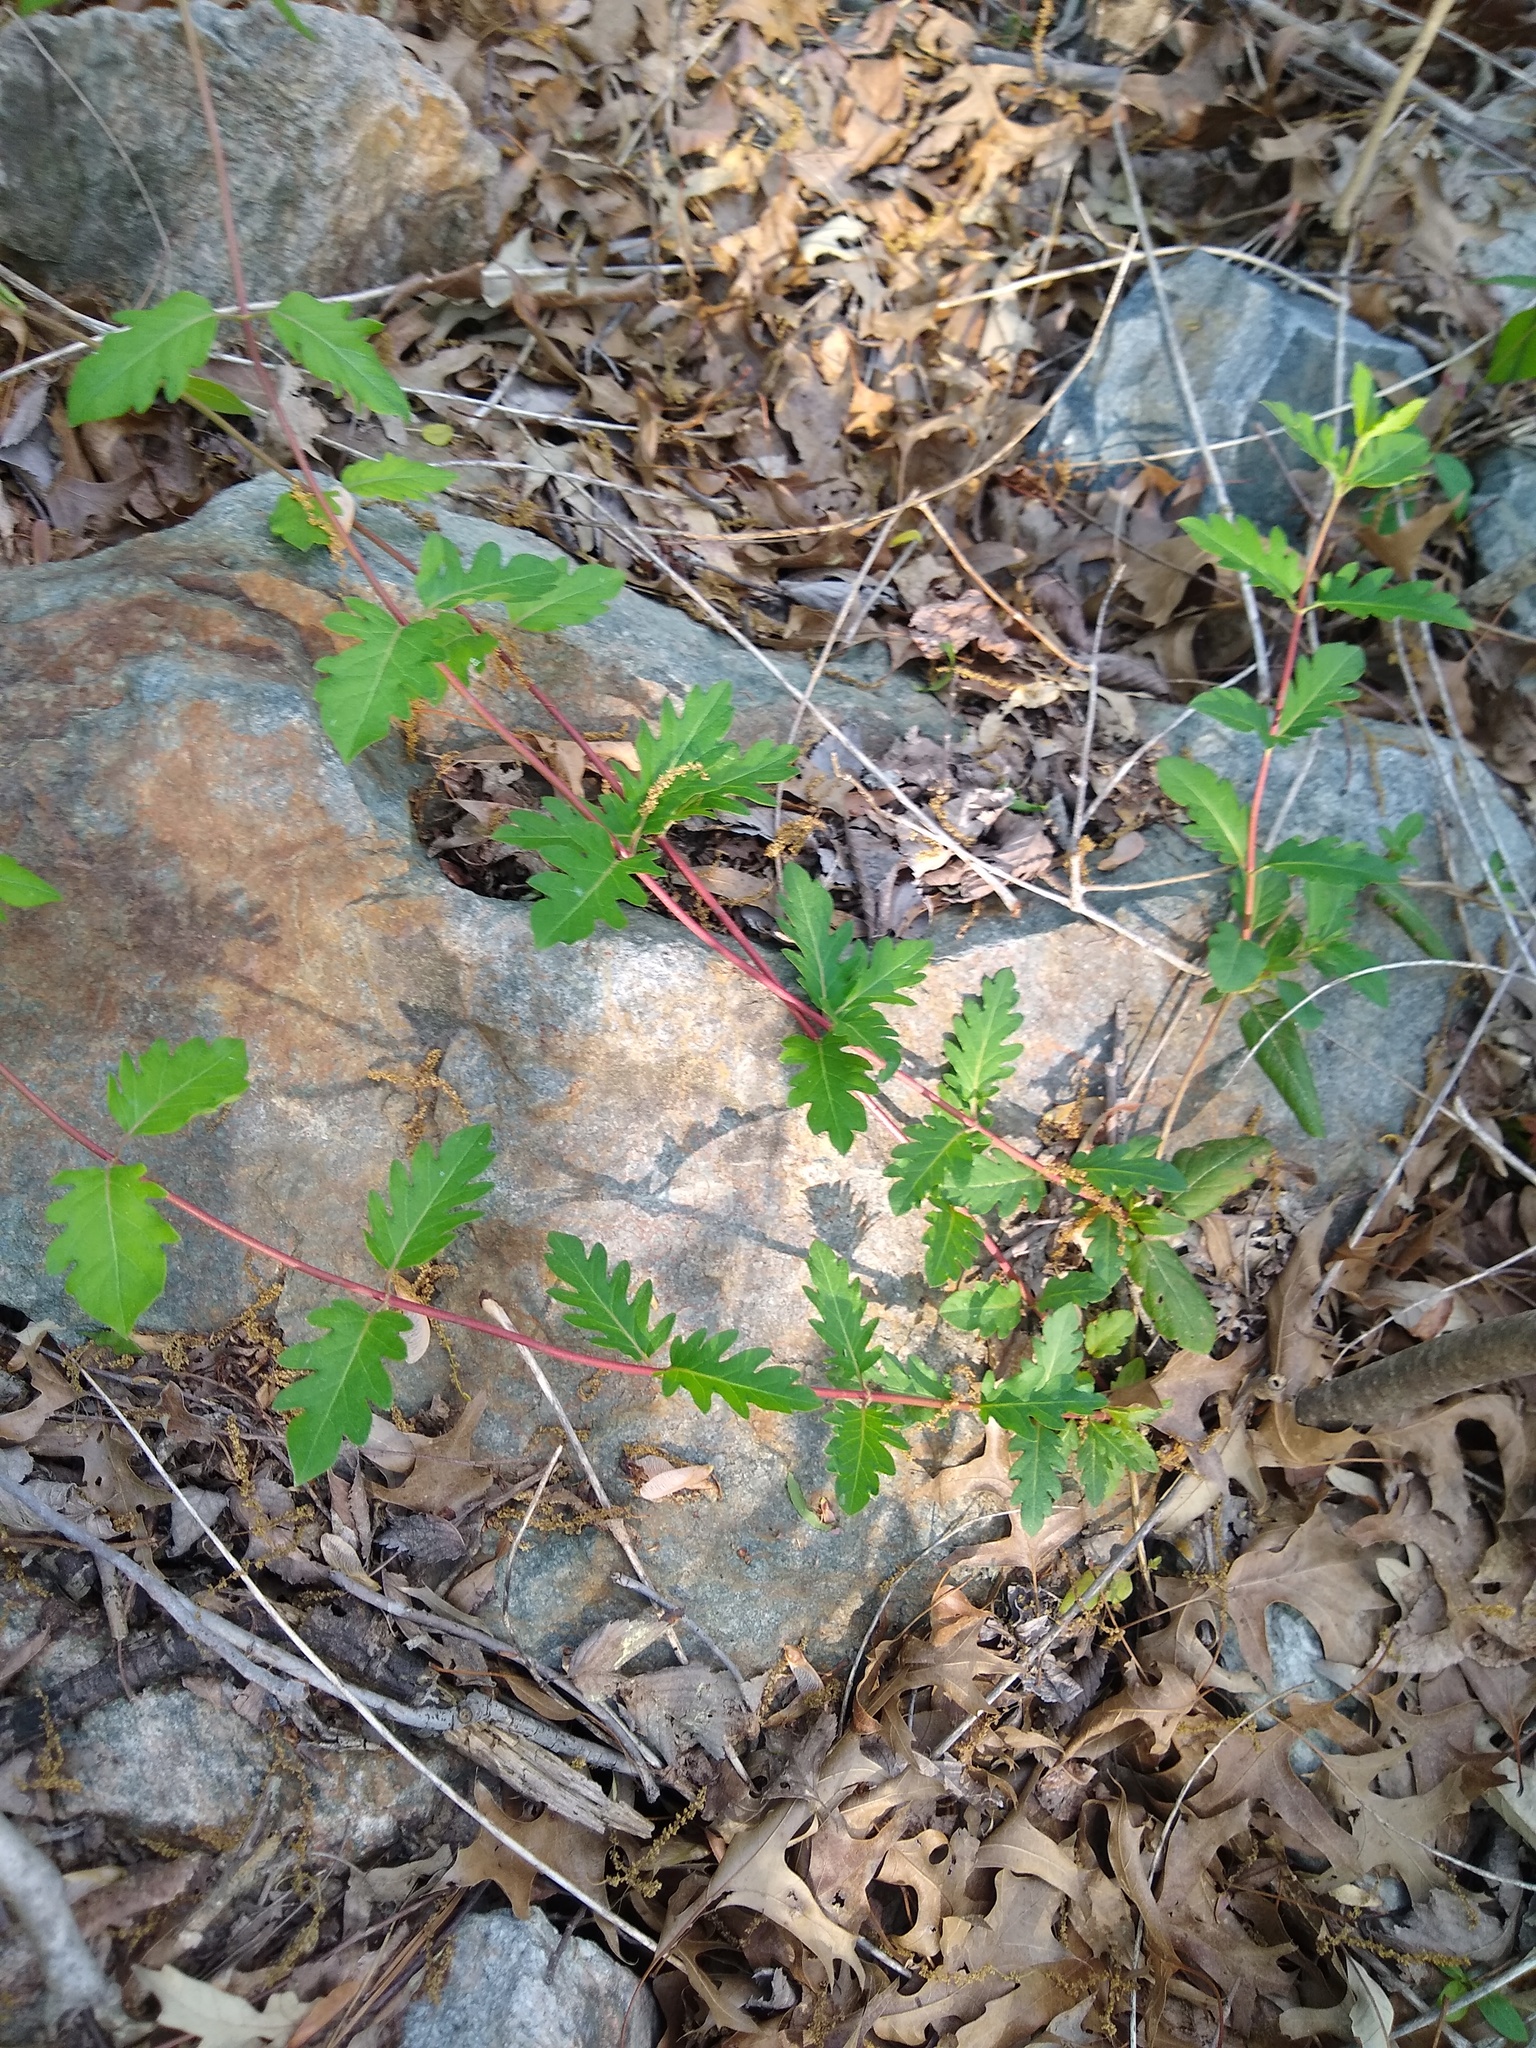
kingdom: Plantae
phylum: Tracheophyta
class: Magnoliopsida
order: Dipsacales
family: Caprifoliaceae
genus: Lonicera
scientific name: Lonicera japonica
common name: Japanese honeysuckle
